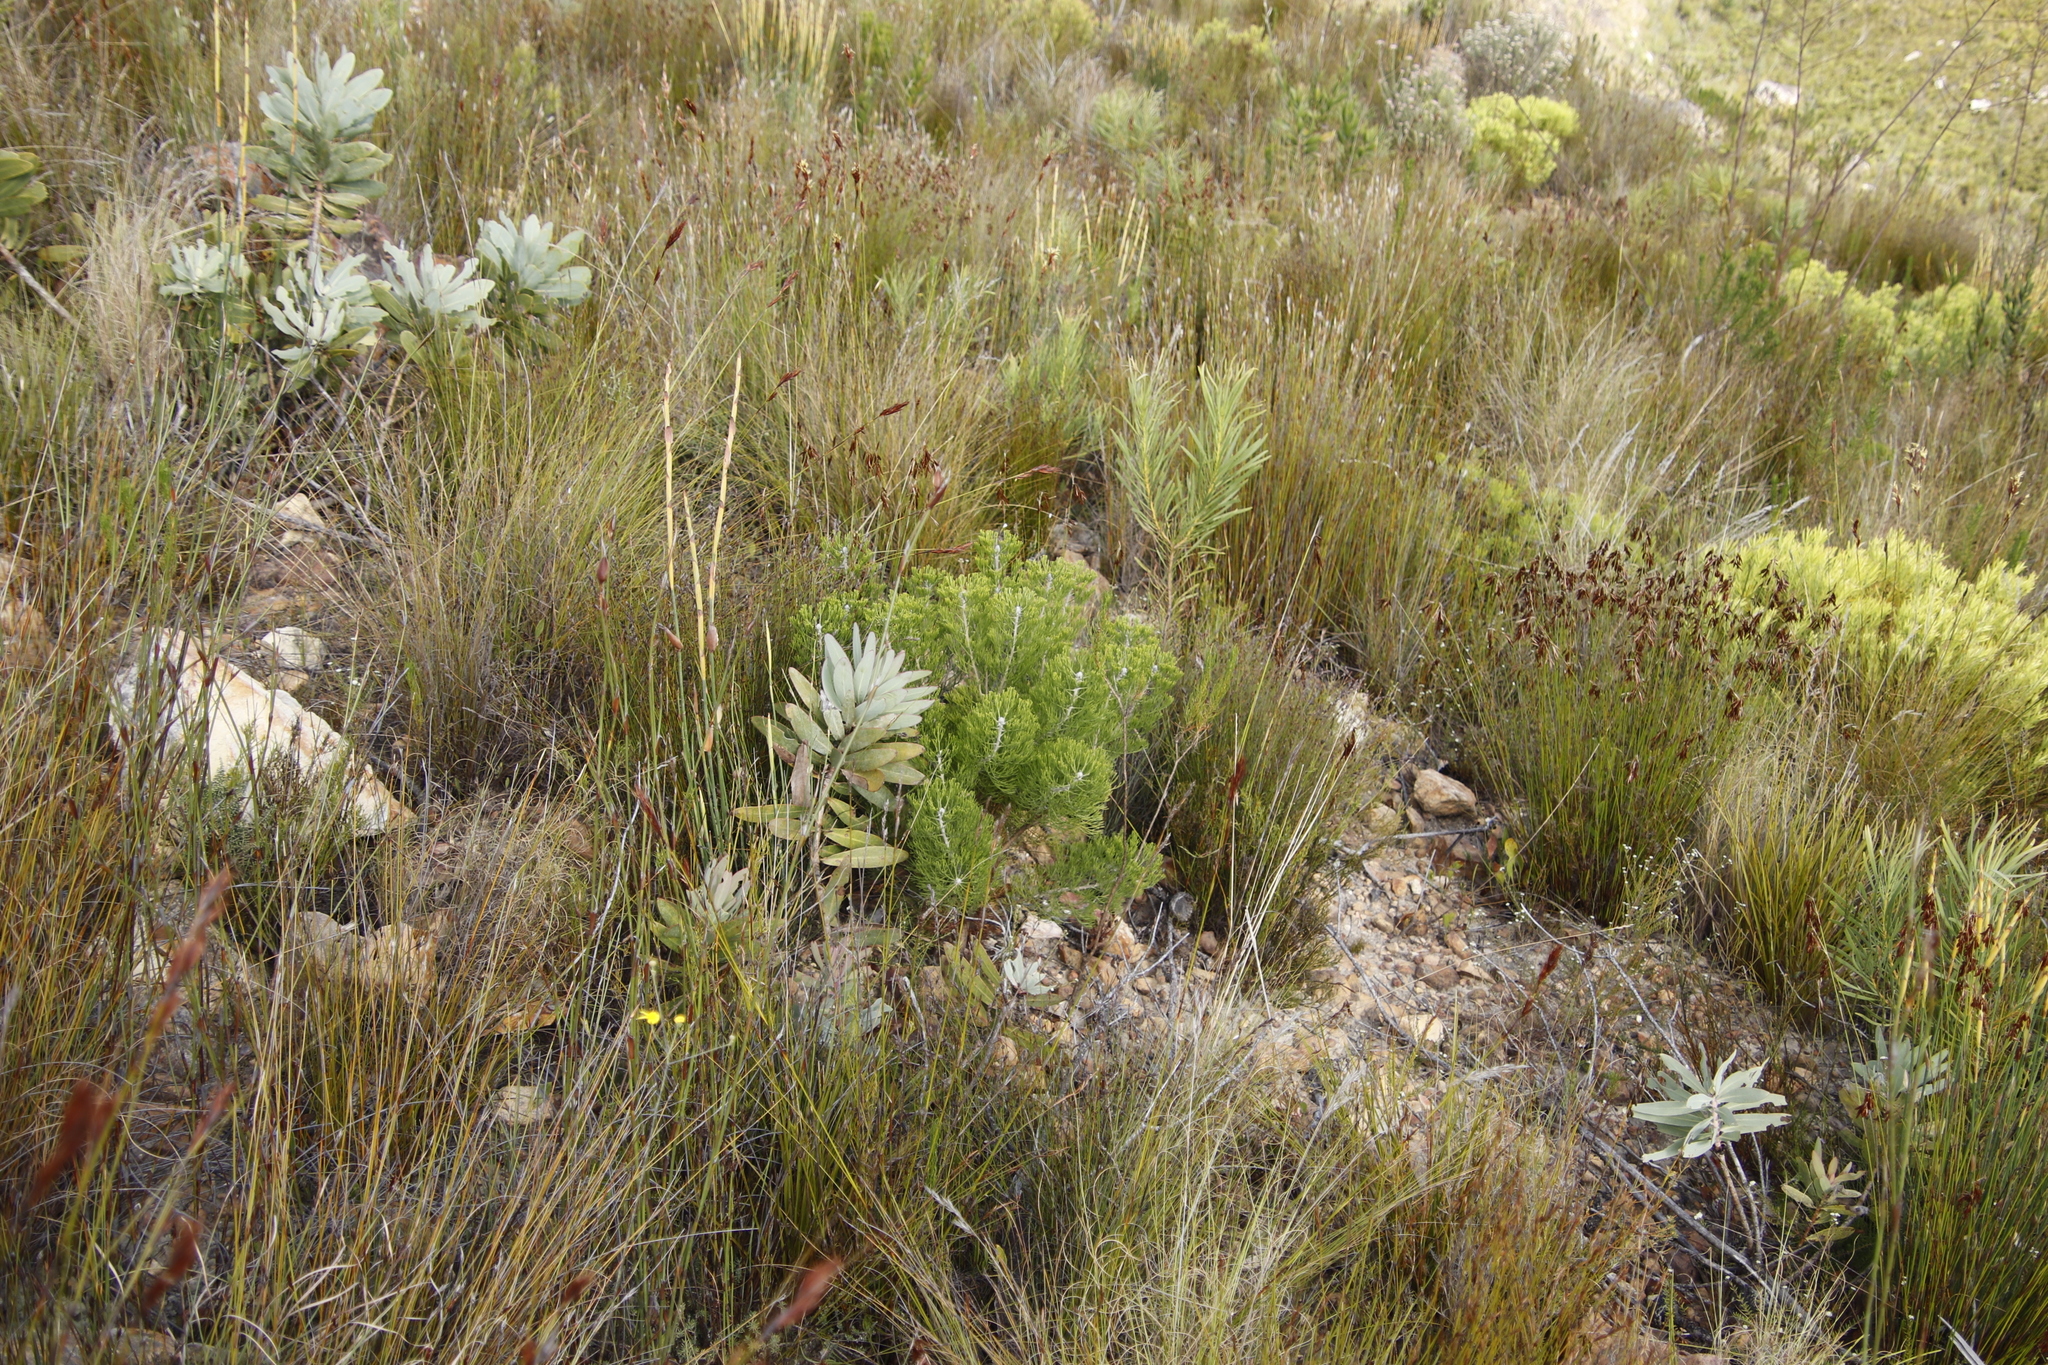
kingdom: Plantae
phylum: Tracheophyta
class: Magnoliopsida
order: Proteales
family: Proteaceae
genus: Protea
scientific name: Protea nitida
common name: Tree protea
